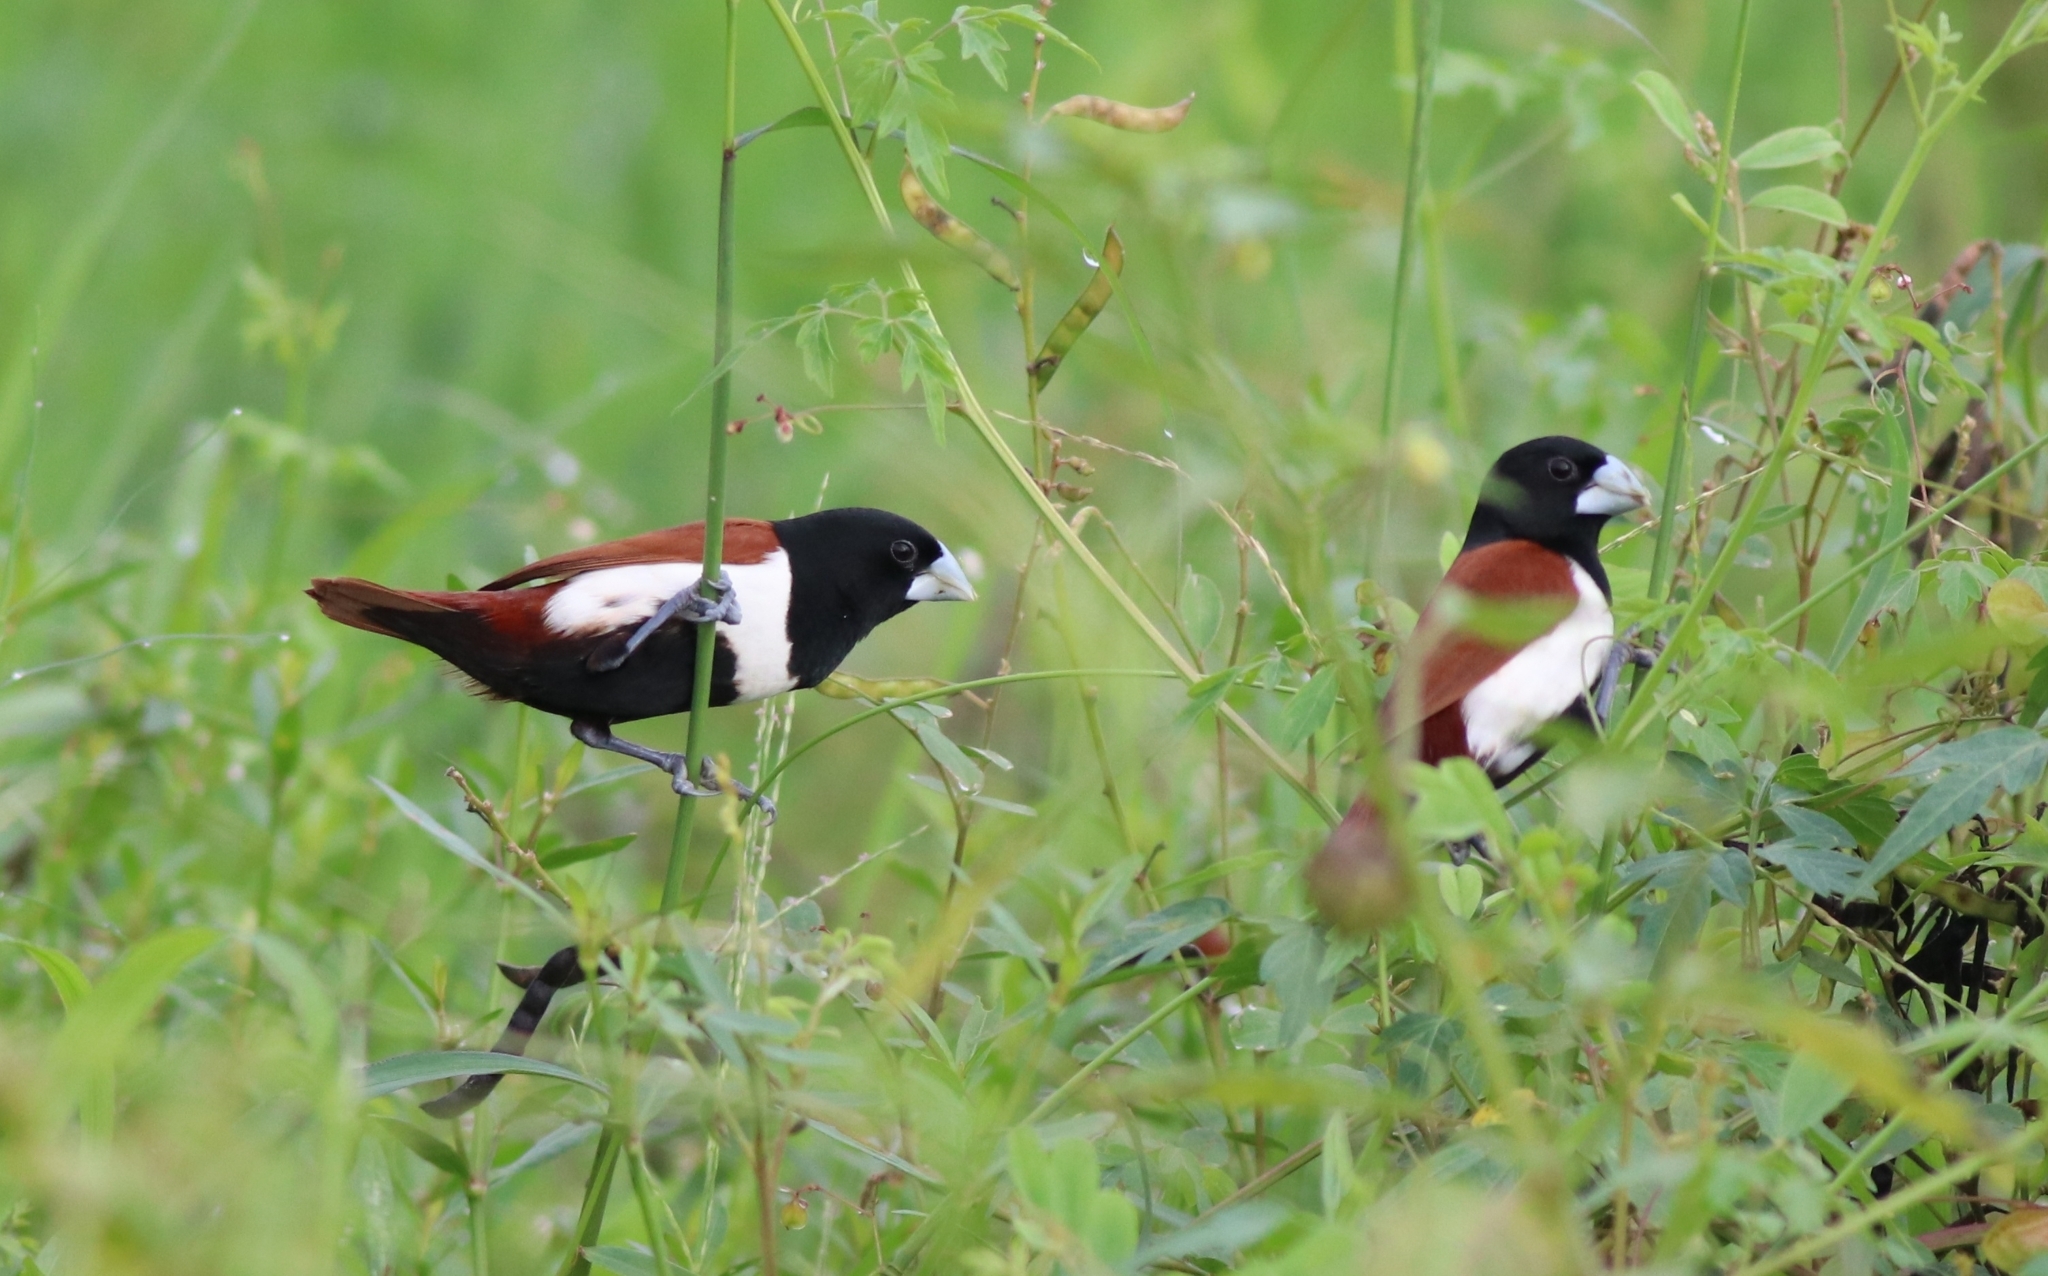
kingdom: Animalia
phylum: Chordata
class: Aves
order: Passeriformes
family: Estrildidae
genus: Lonchura
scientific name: Lonchura malacca
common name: Tricolored munia
